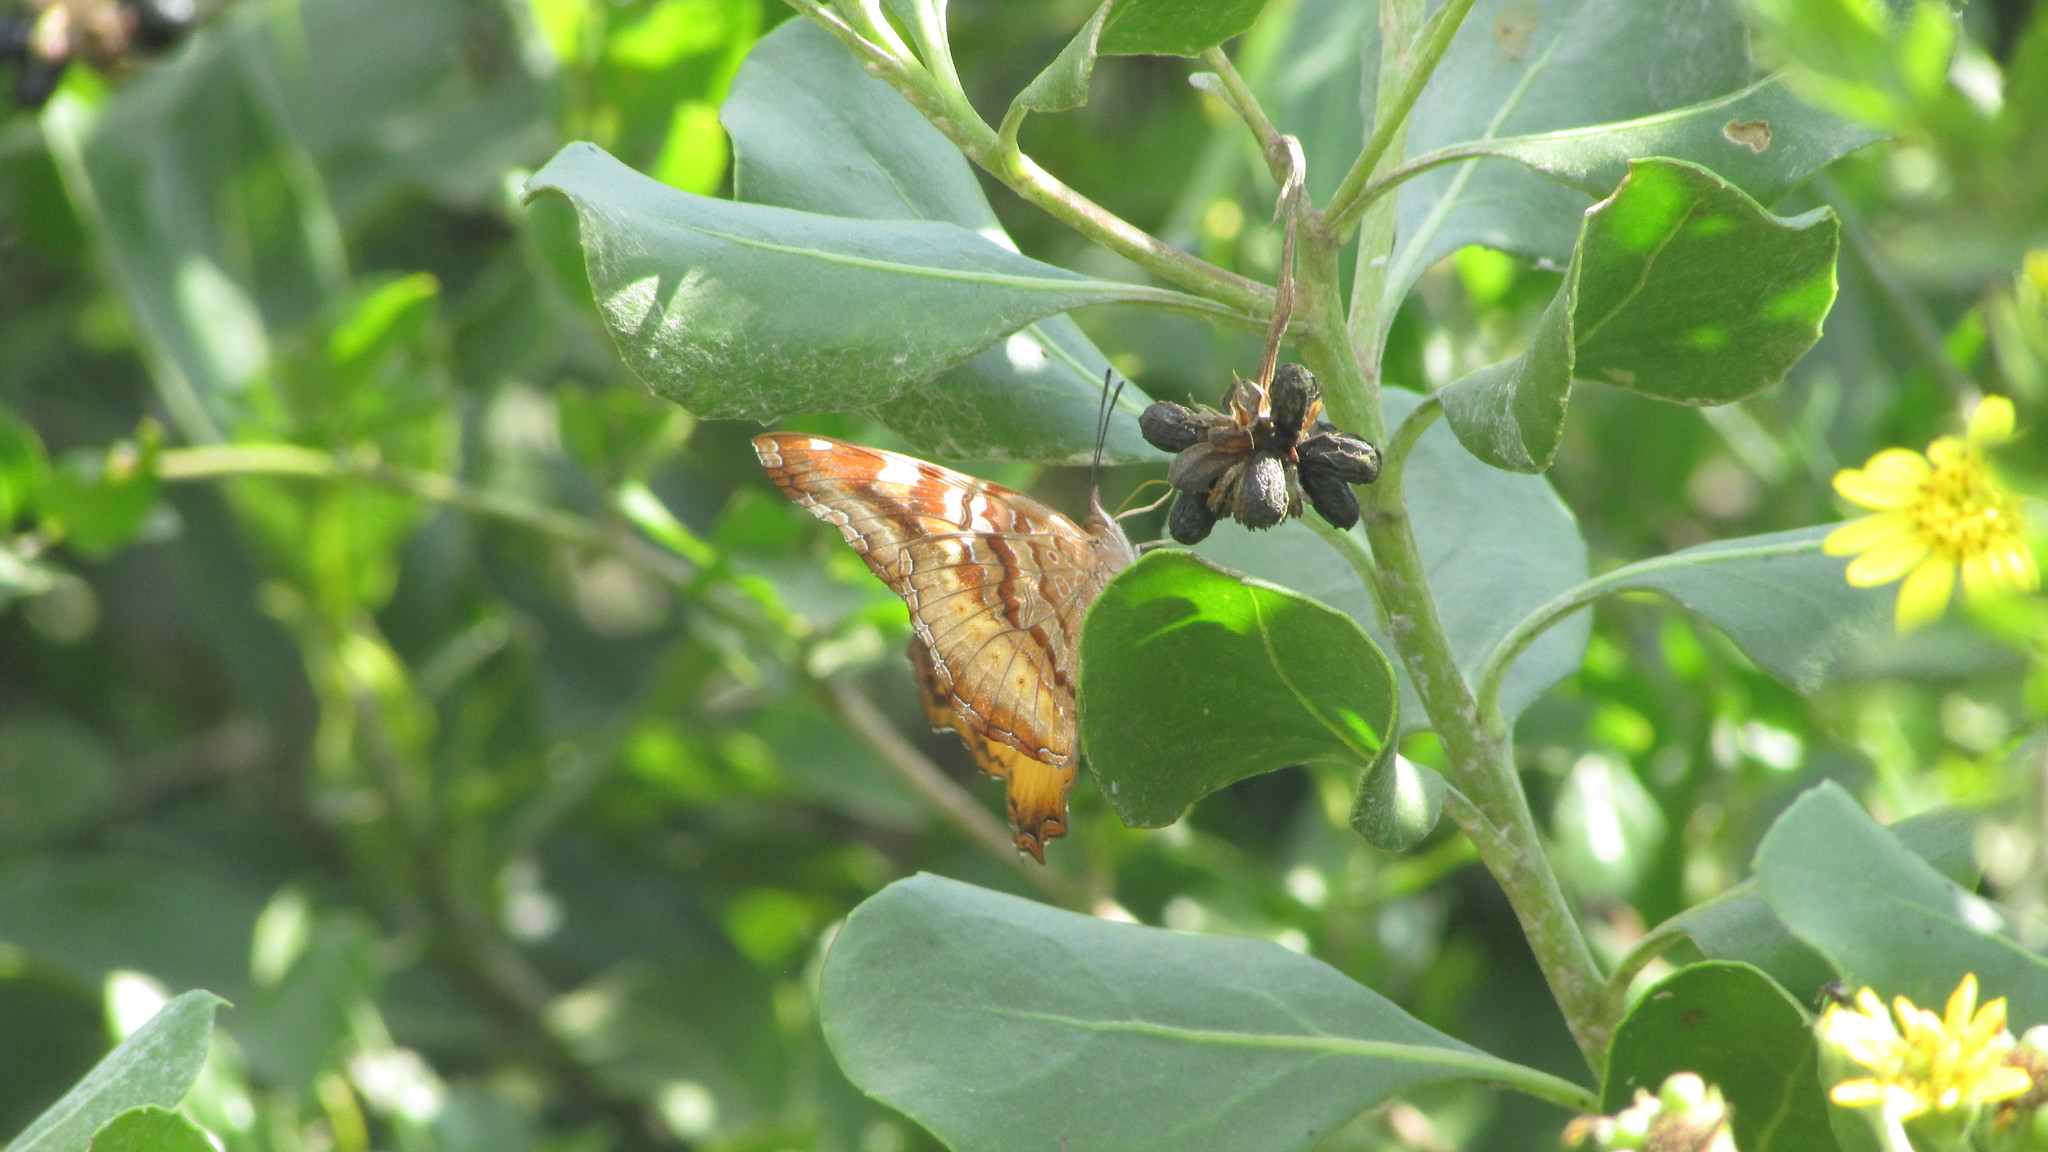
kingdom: Animalia
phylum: Arthropoda
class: Insecta
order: Lepidoptera
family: Nymphalidae
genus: Eurytela
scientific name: Eurytela dryope
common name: Golden piper
